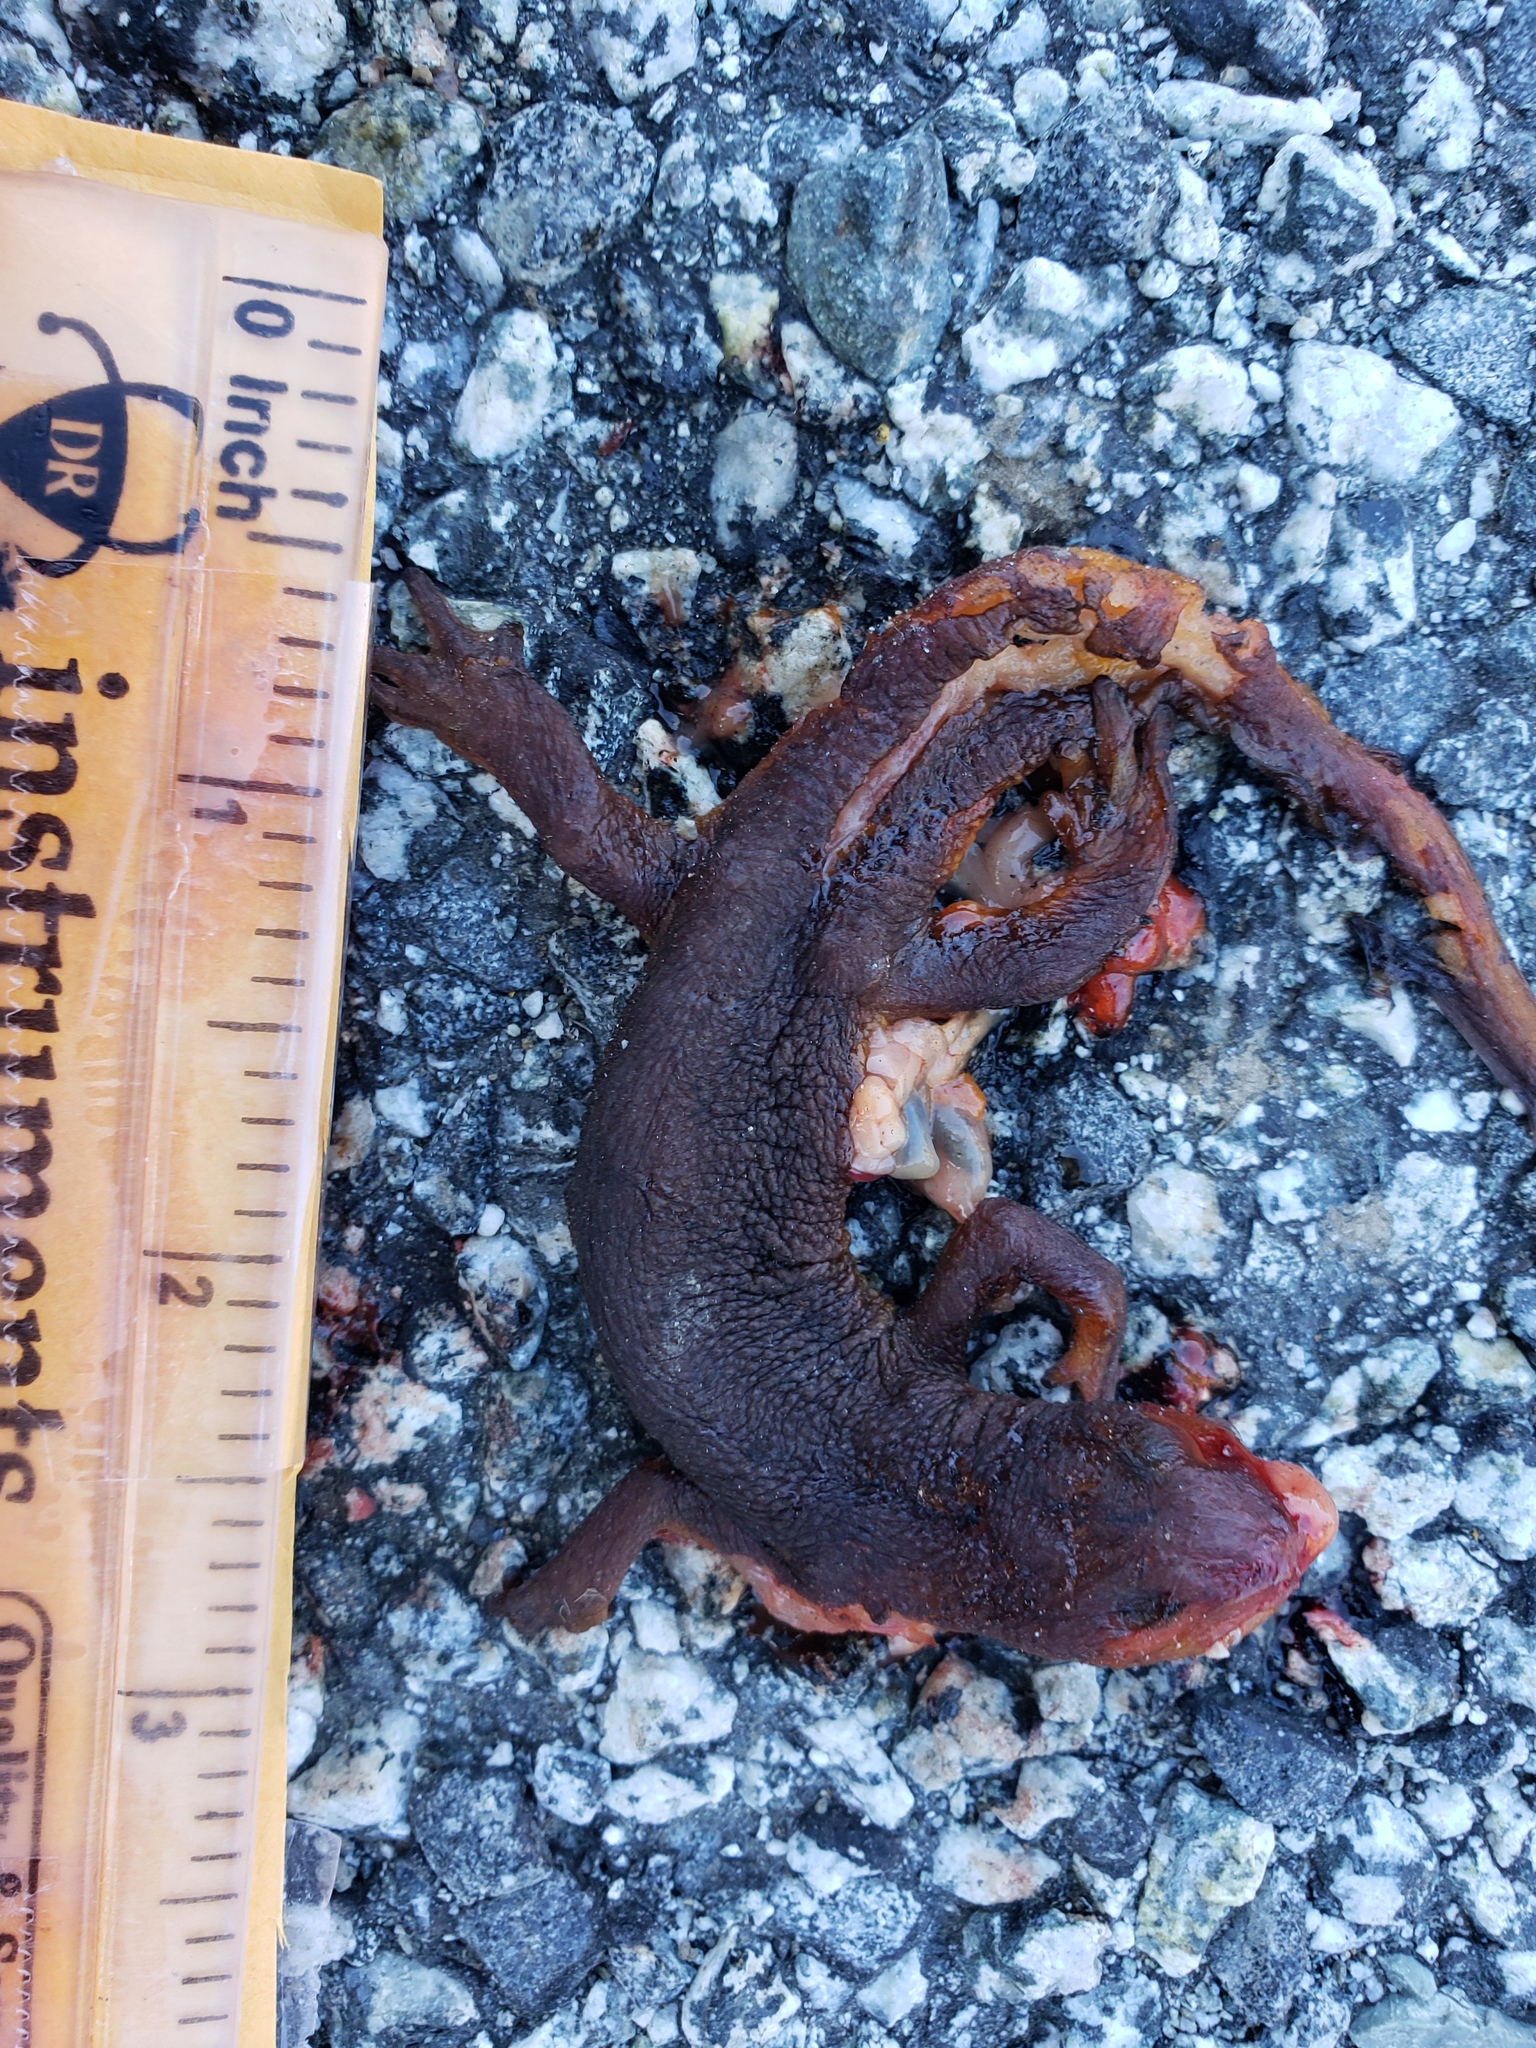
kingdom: Animalia
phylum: Chordata
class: Amphibia
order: Caudata
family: Salamandridae
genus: Taricha
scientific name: Taricha
